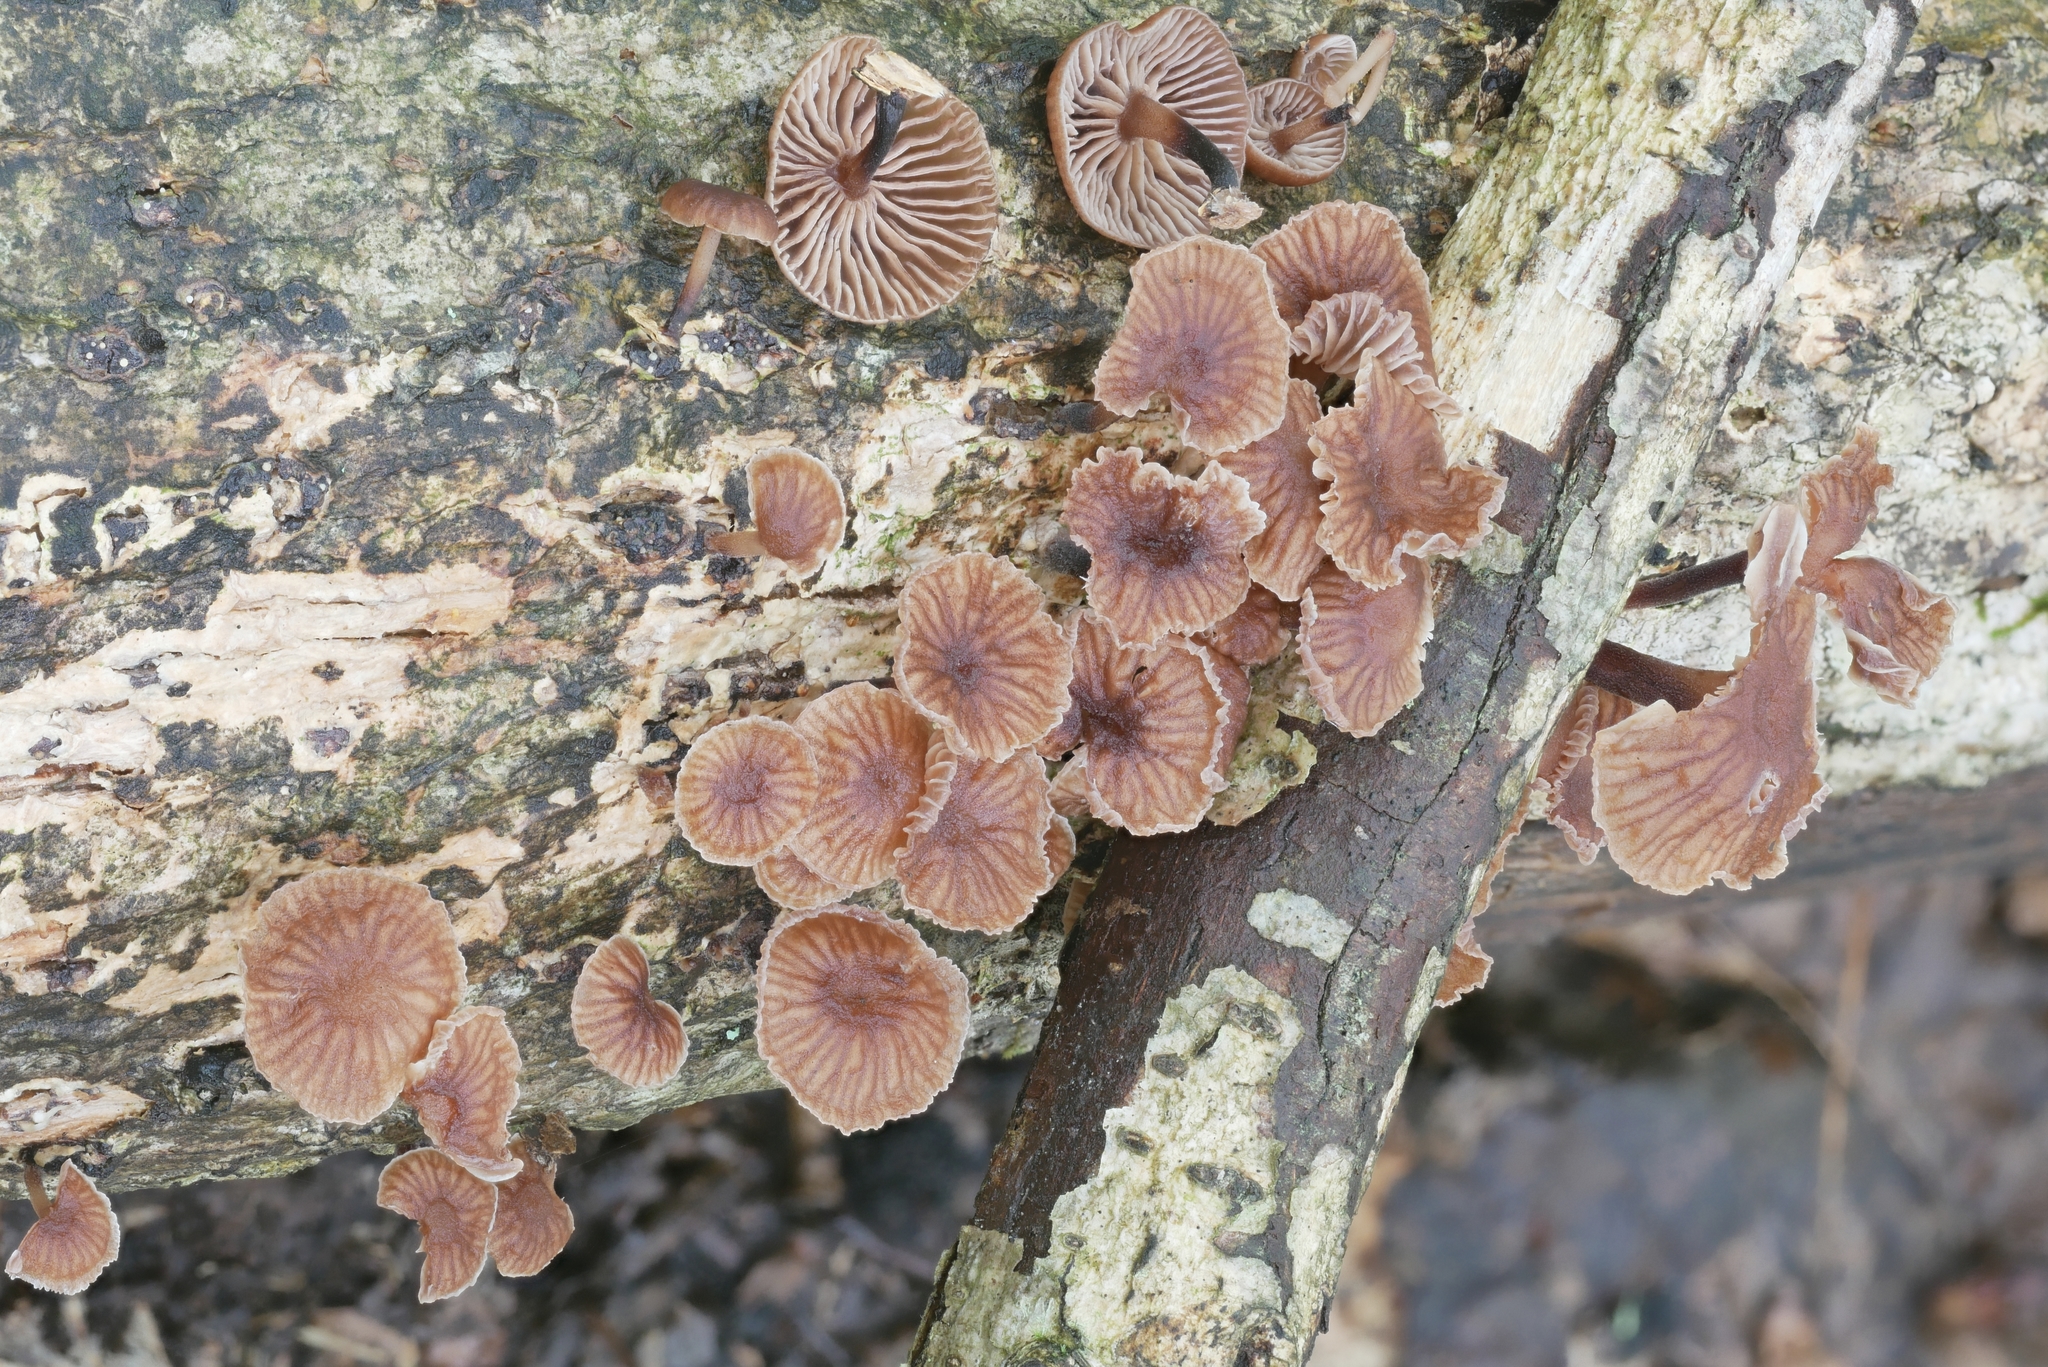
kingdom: Fungi
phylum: Basidiomycota
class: Agaricomycetes
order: Agaricales
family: Omphalotaceae
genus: Gymnopus
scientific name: Gymnopus foetidus
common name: Foetid parachute
